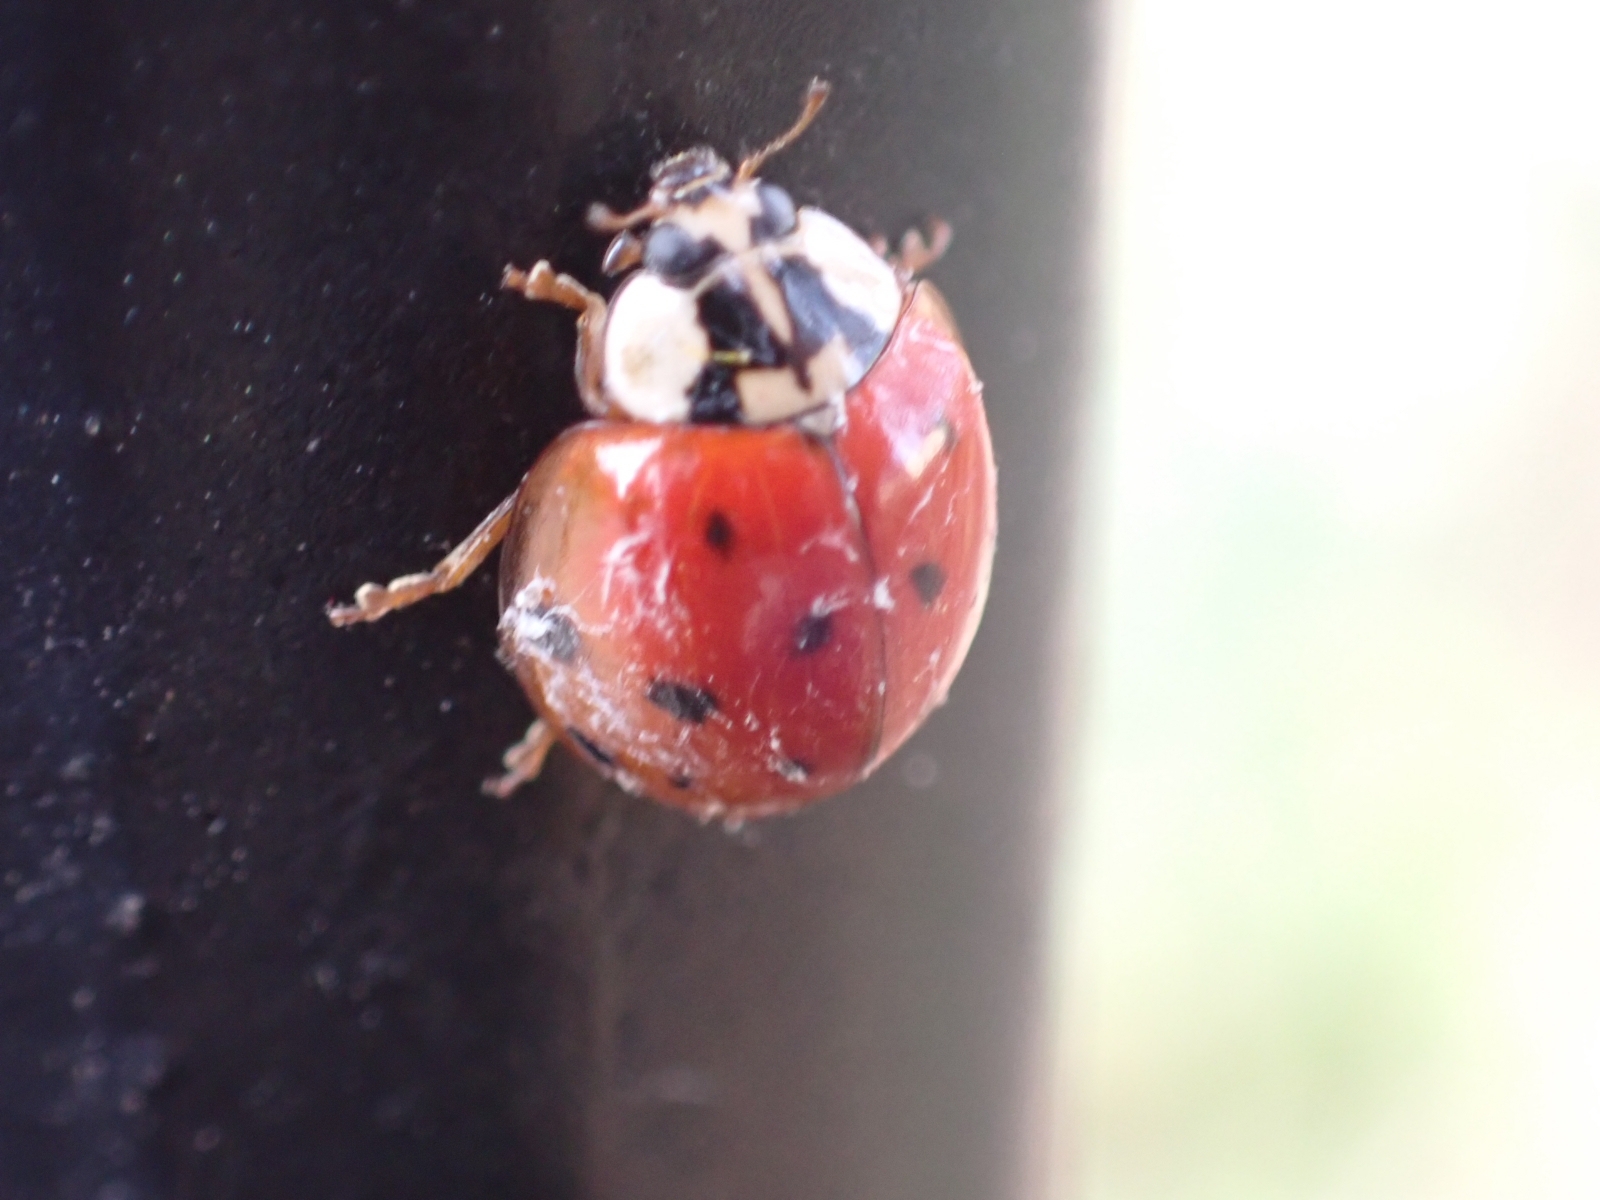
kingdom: Animalia
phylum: Arthropoda
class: Insecta
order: Coleoptera
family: Coccinellidae
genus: Harmonia
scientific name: Harmonia axyridis
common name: Harlequin ladybird
